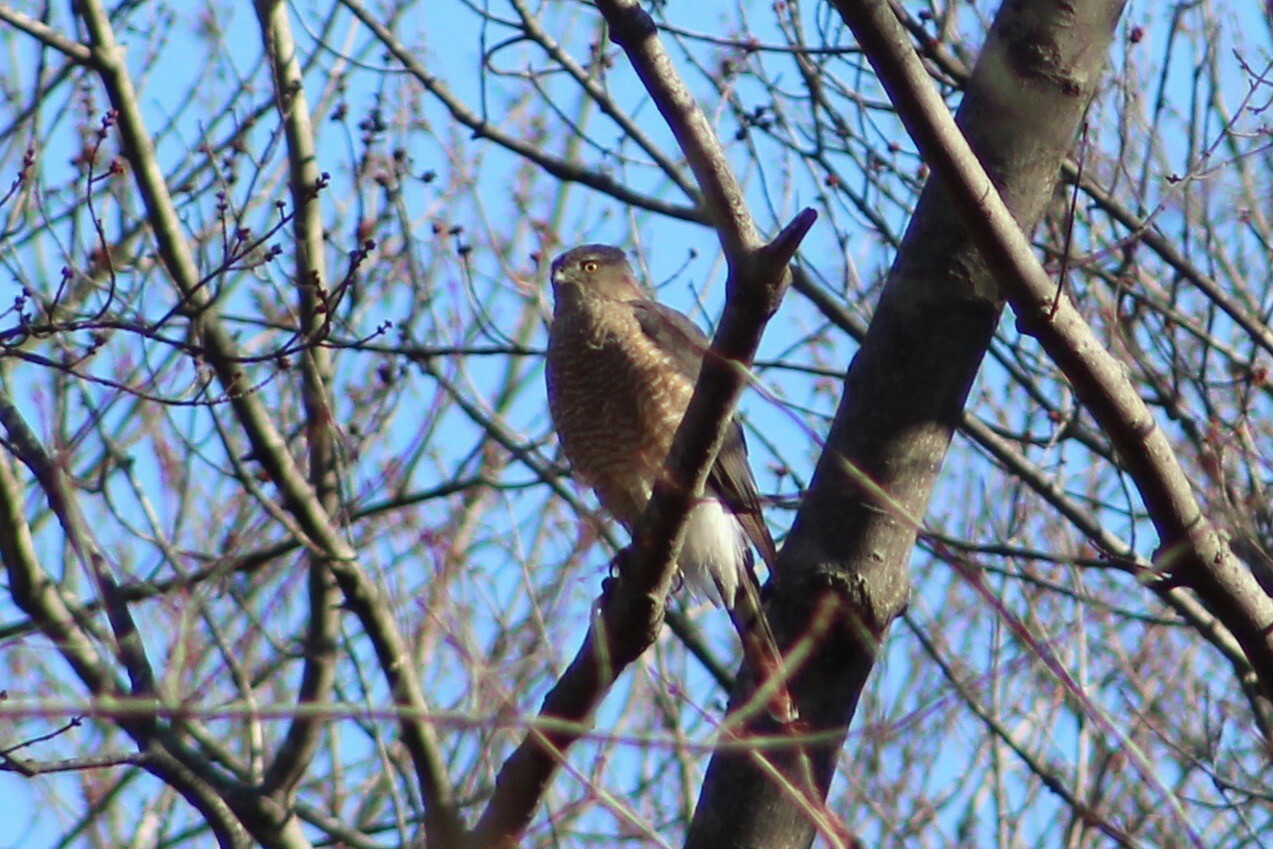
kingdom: Animalia
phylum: Chordata
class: Aves
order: Accipitriformes
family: Accipitridae
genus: Accipiter
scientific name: Accipiter cooperii
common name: Cooper's hawk
